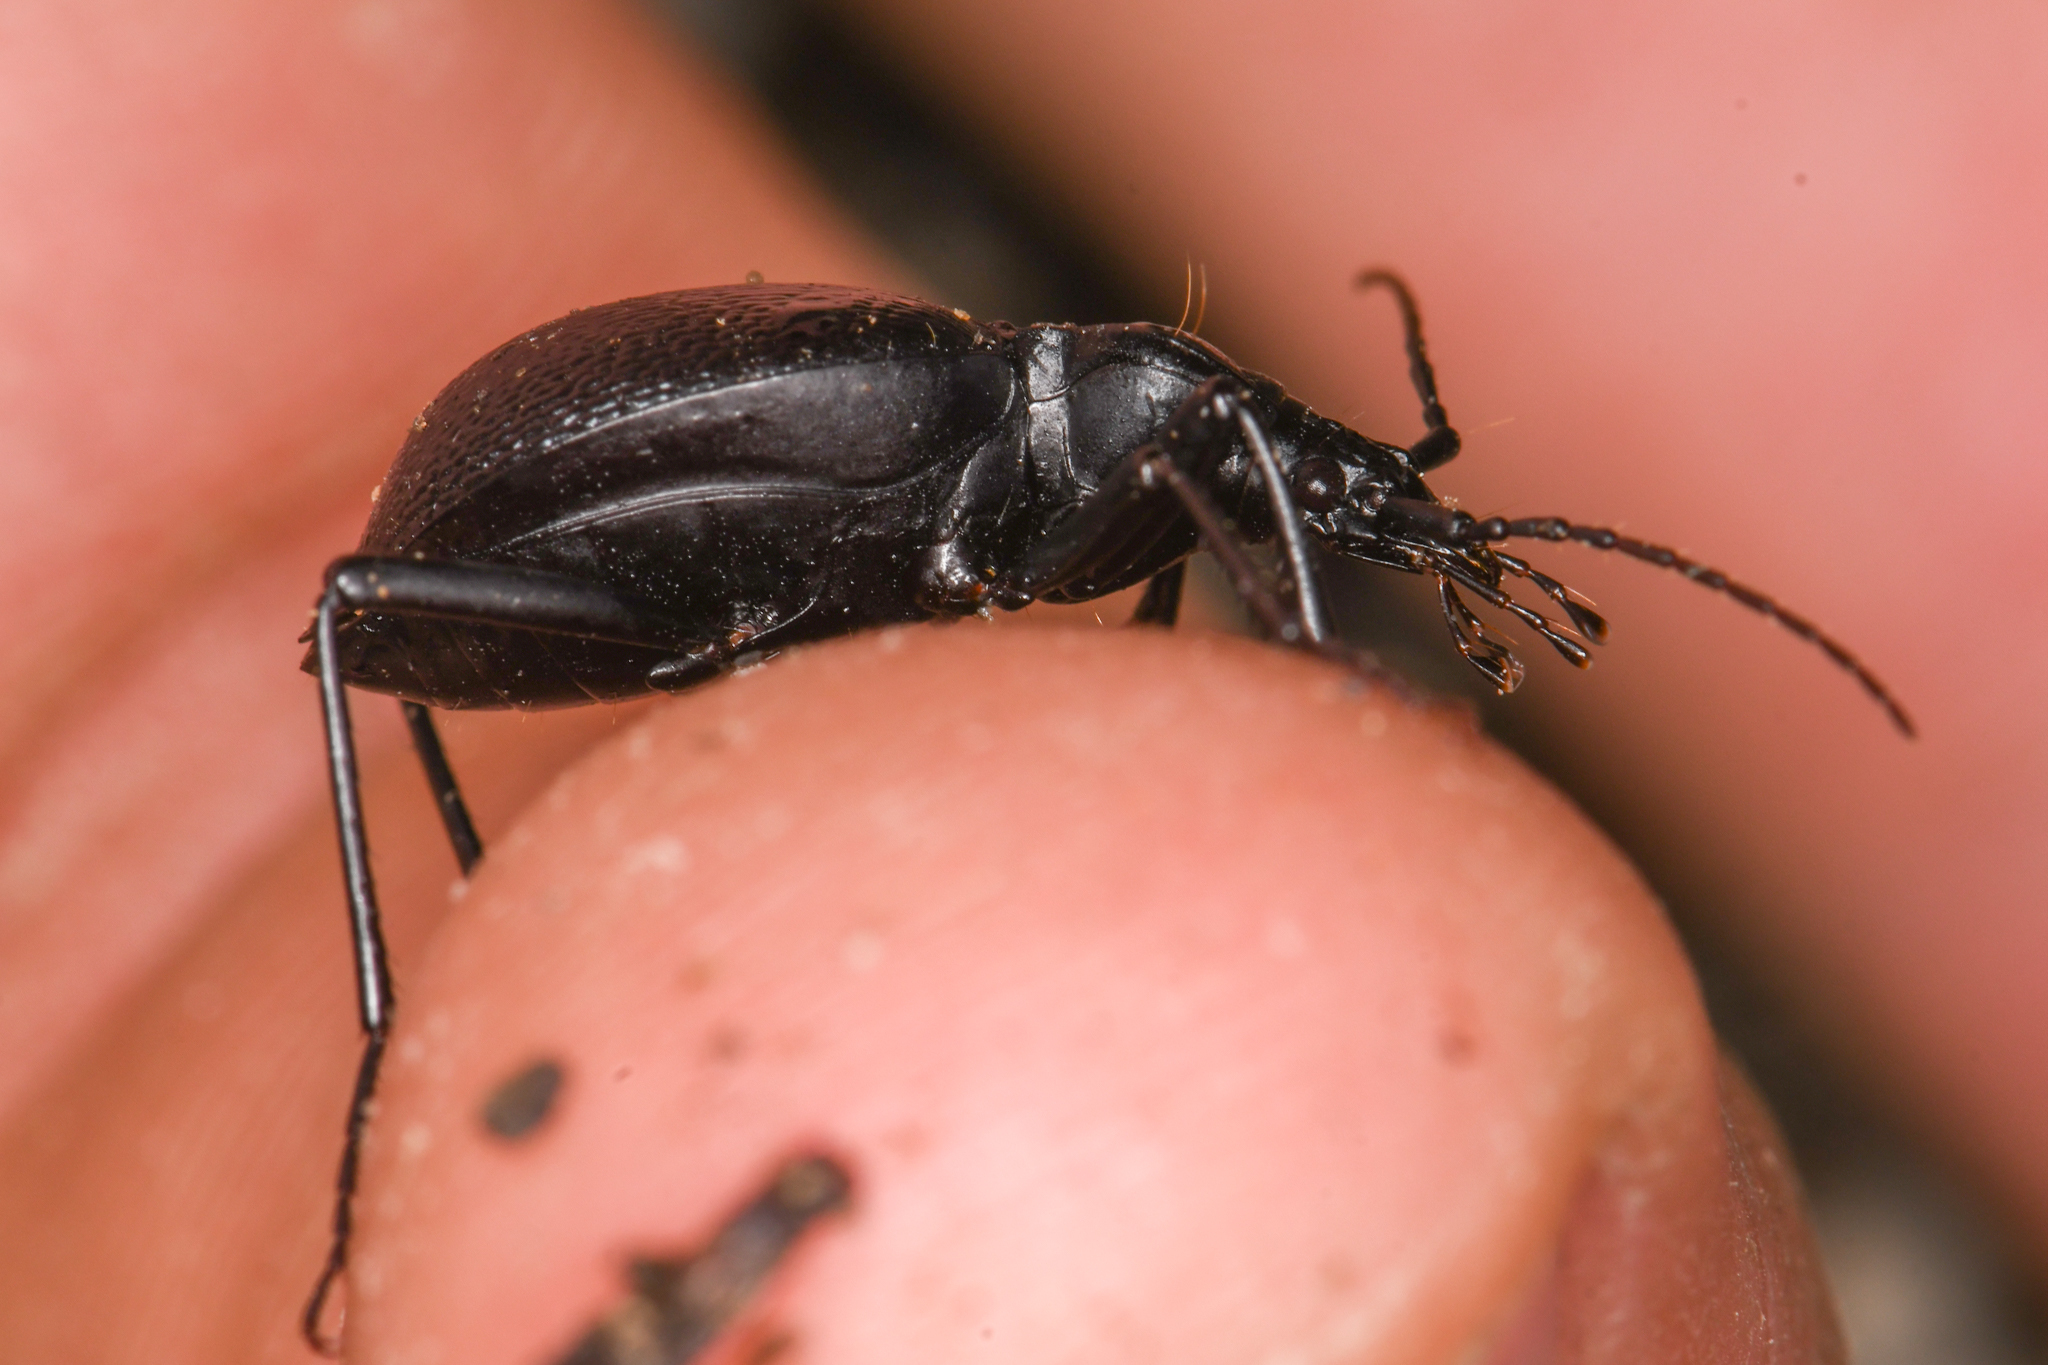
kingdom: Animalia
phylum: Arthropoda
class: Insecta
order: Coleoptera
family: Carabidae
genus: Scaphinotus
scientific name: Scaphinotus rugiceps
